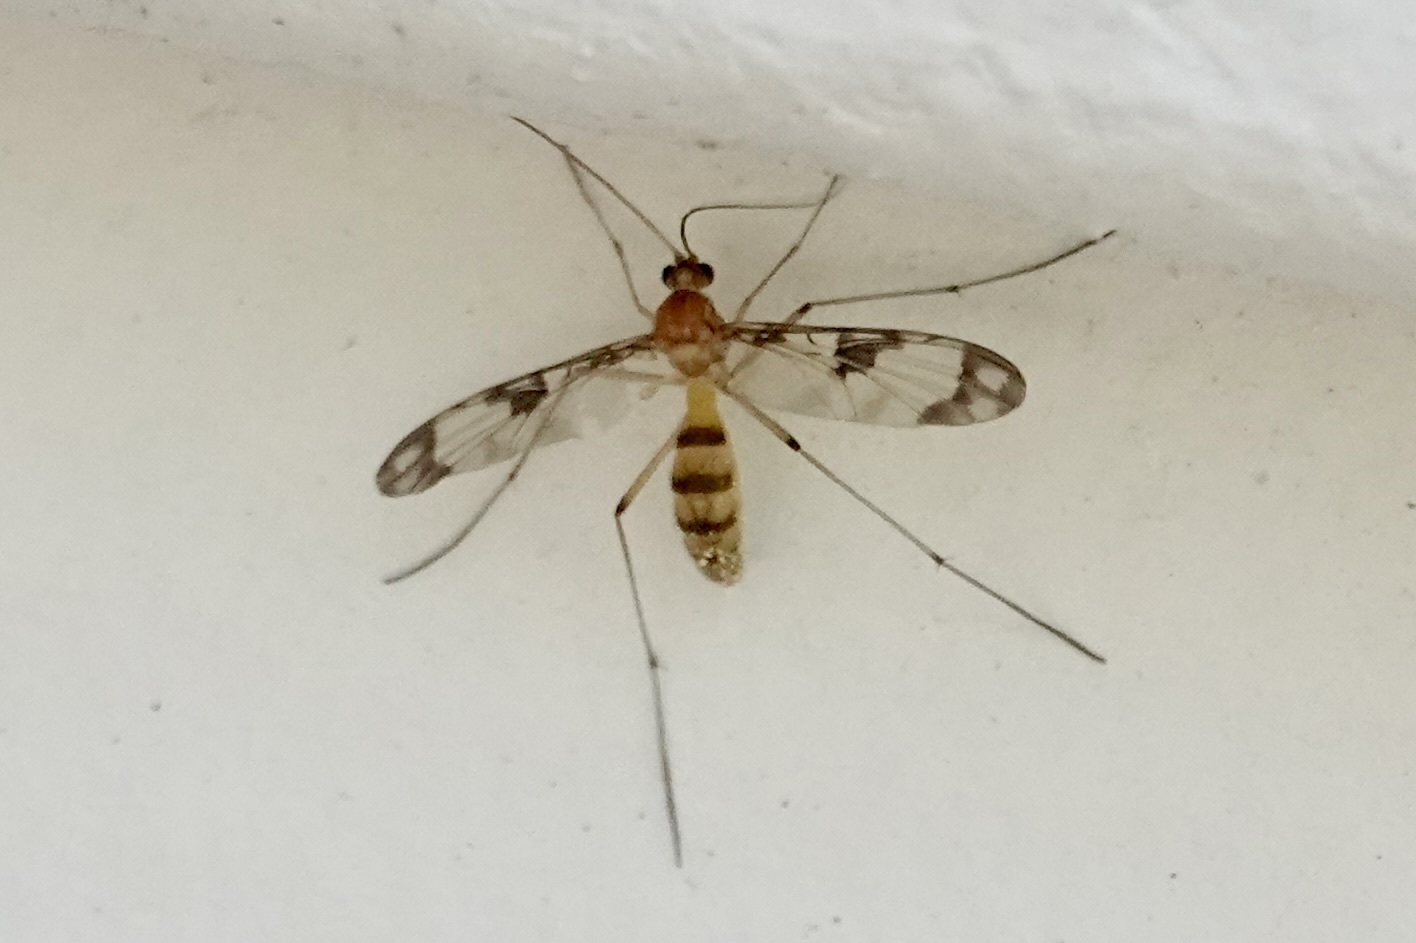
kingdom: Animalia
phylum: Arthropoda
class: Insecta
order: Diptera
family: Keroplatidae
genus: Macrocera
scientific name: Macrocera formosa
